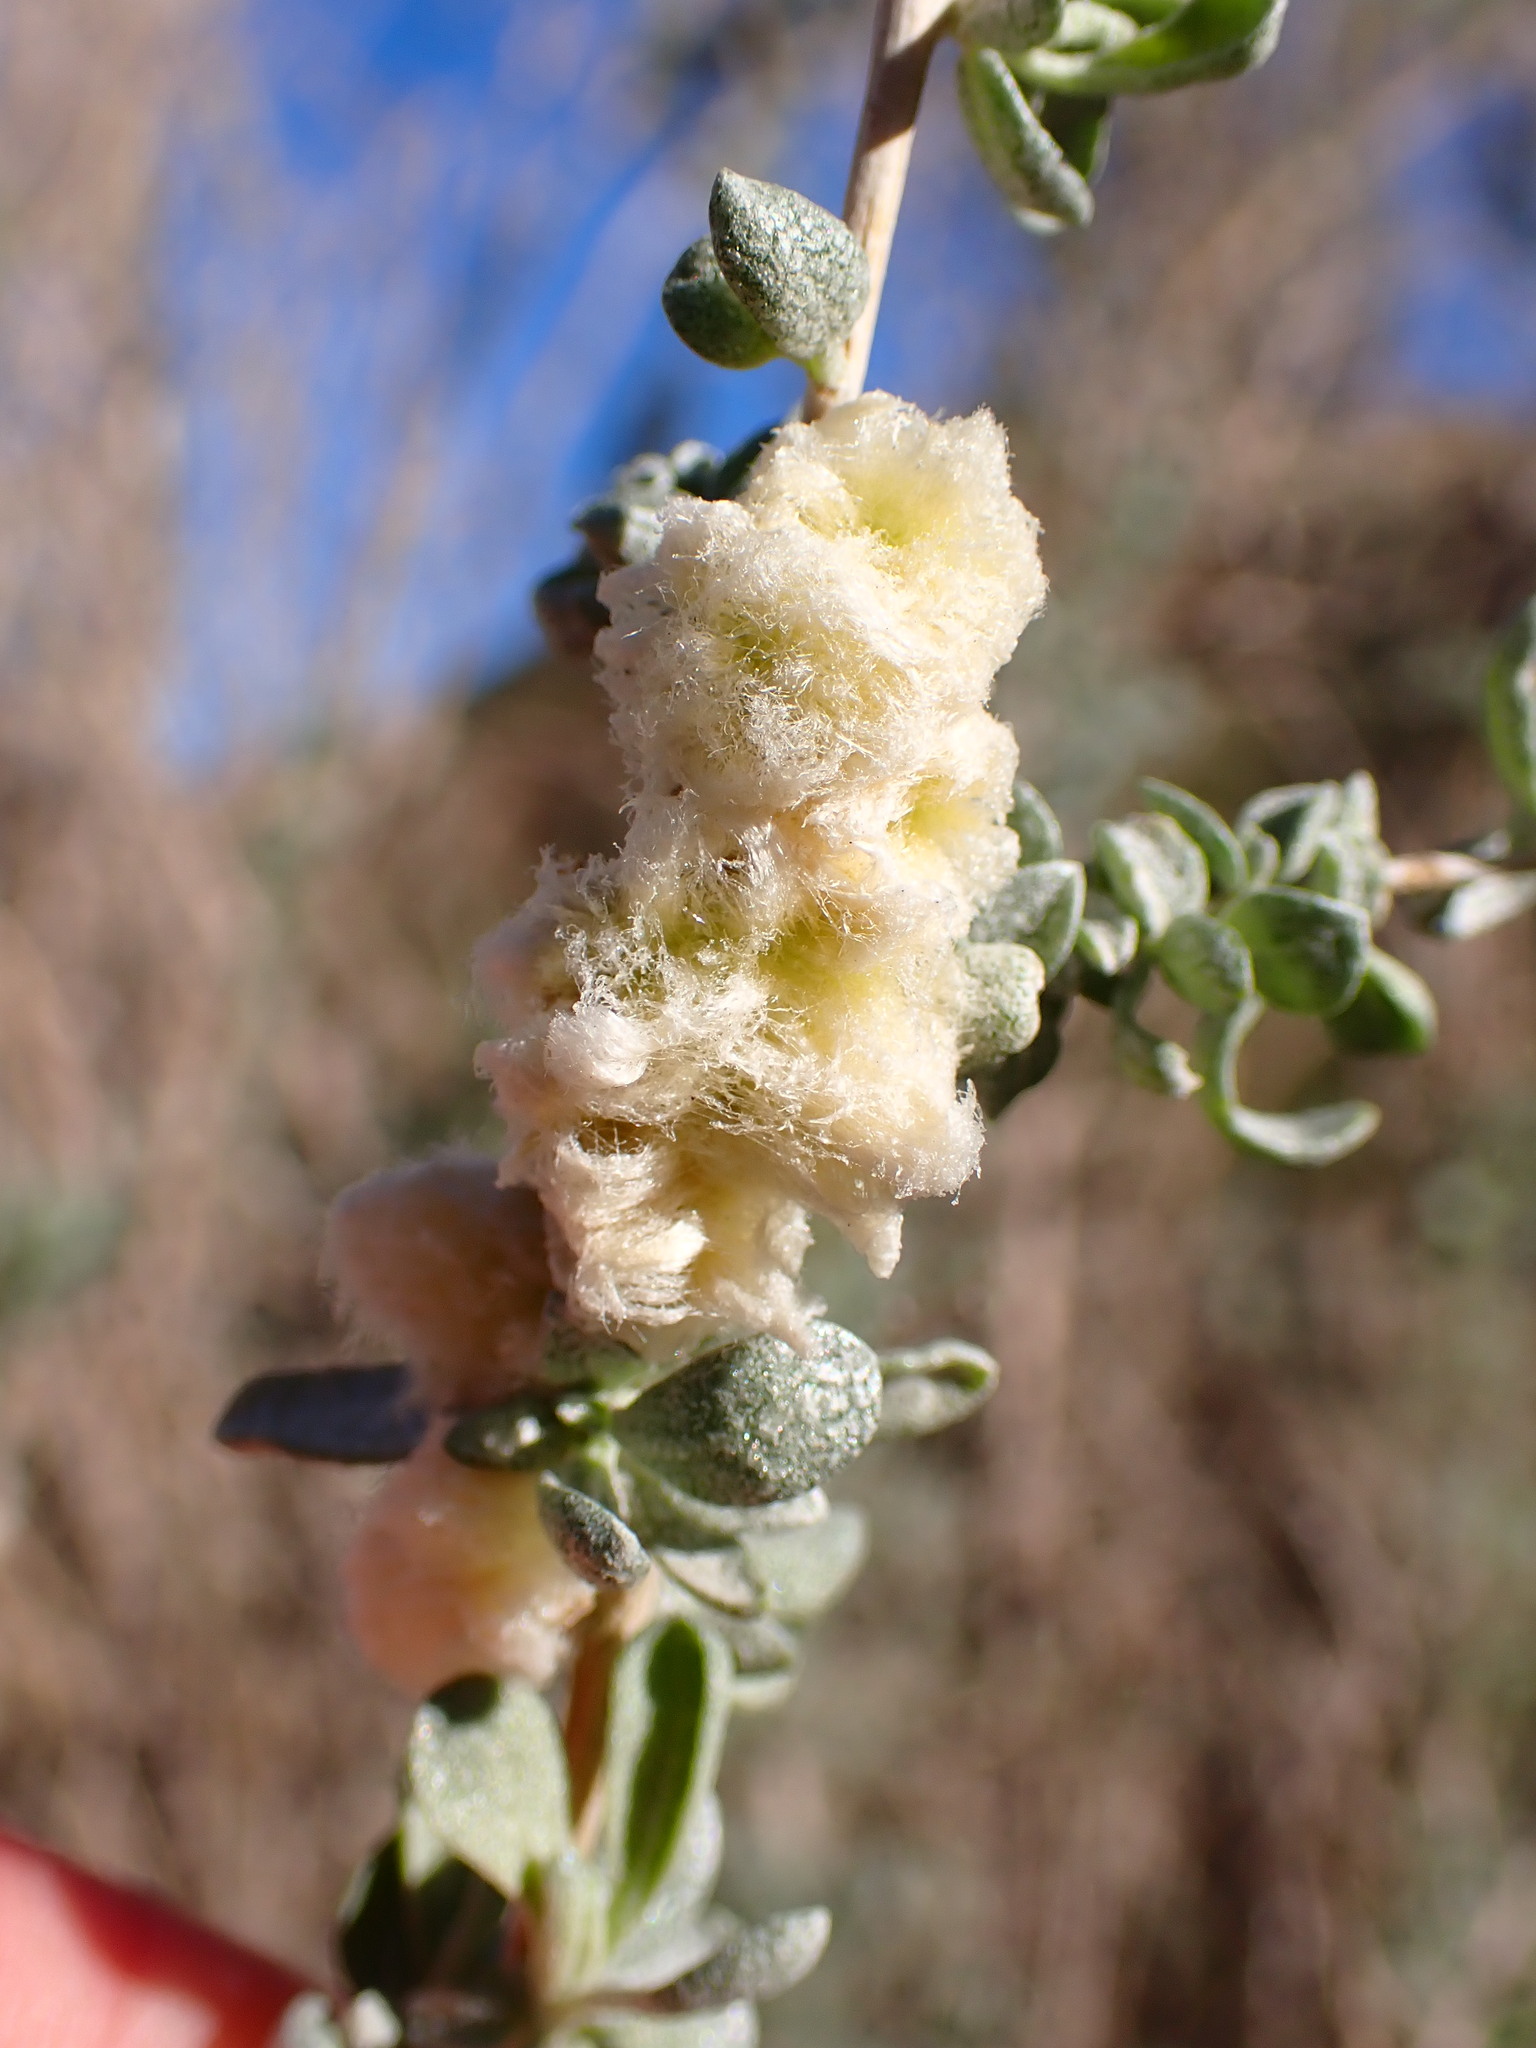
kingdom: Animalia
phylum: Arthropoda
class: Insecta
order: Diptera
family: Cecidomyiidae
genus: Asphondylia
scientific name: Asphondylia floccosa
